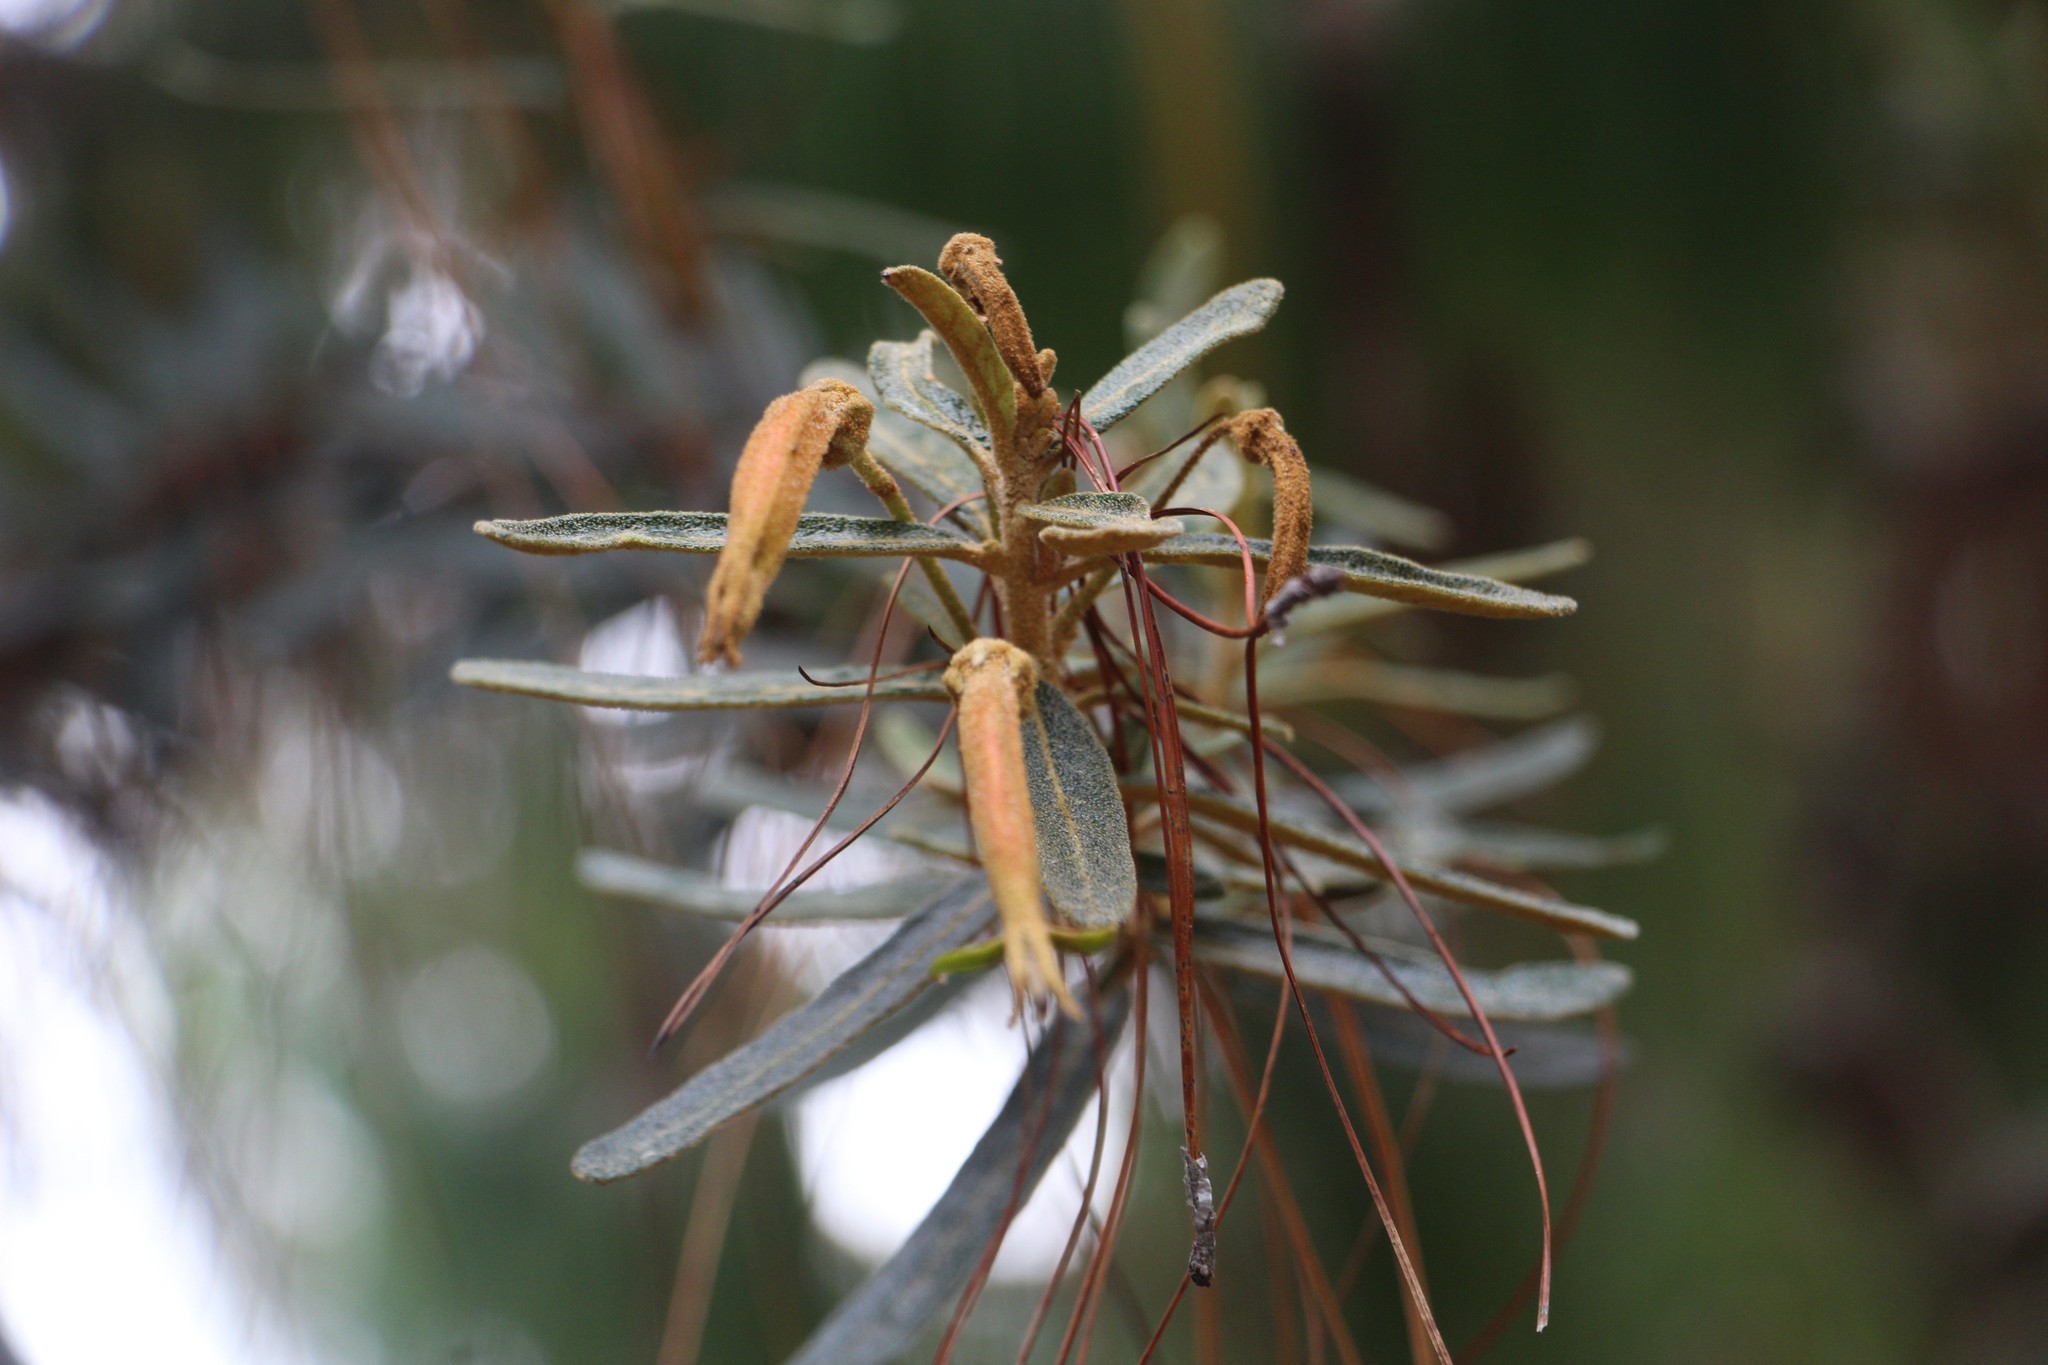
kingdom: Plantae
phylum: Tracheophyta
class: Magnoliopsida
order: Asterales
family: Campanulaceae
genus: Siphocampylus
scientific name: Siphocampylus columnae
